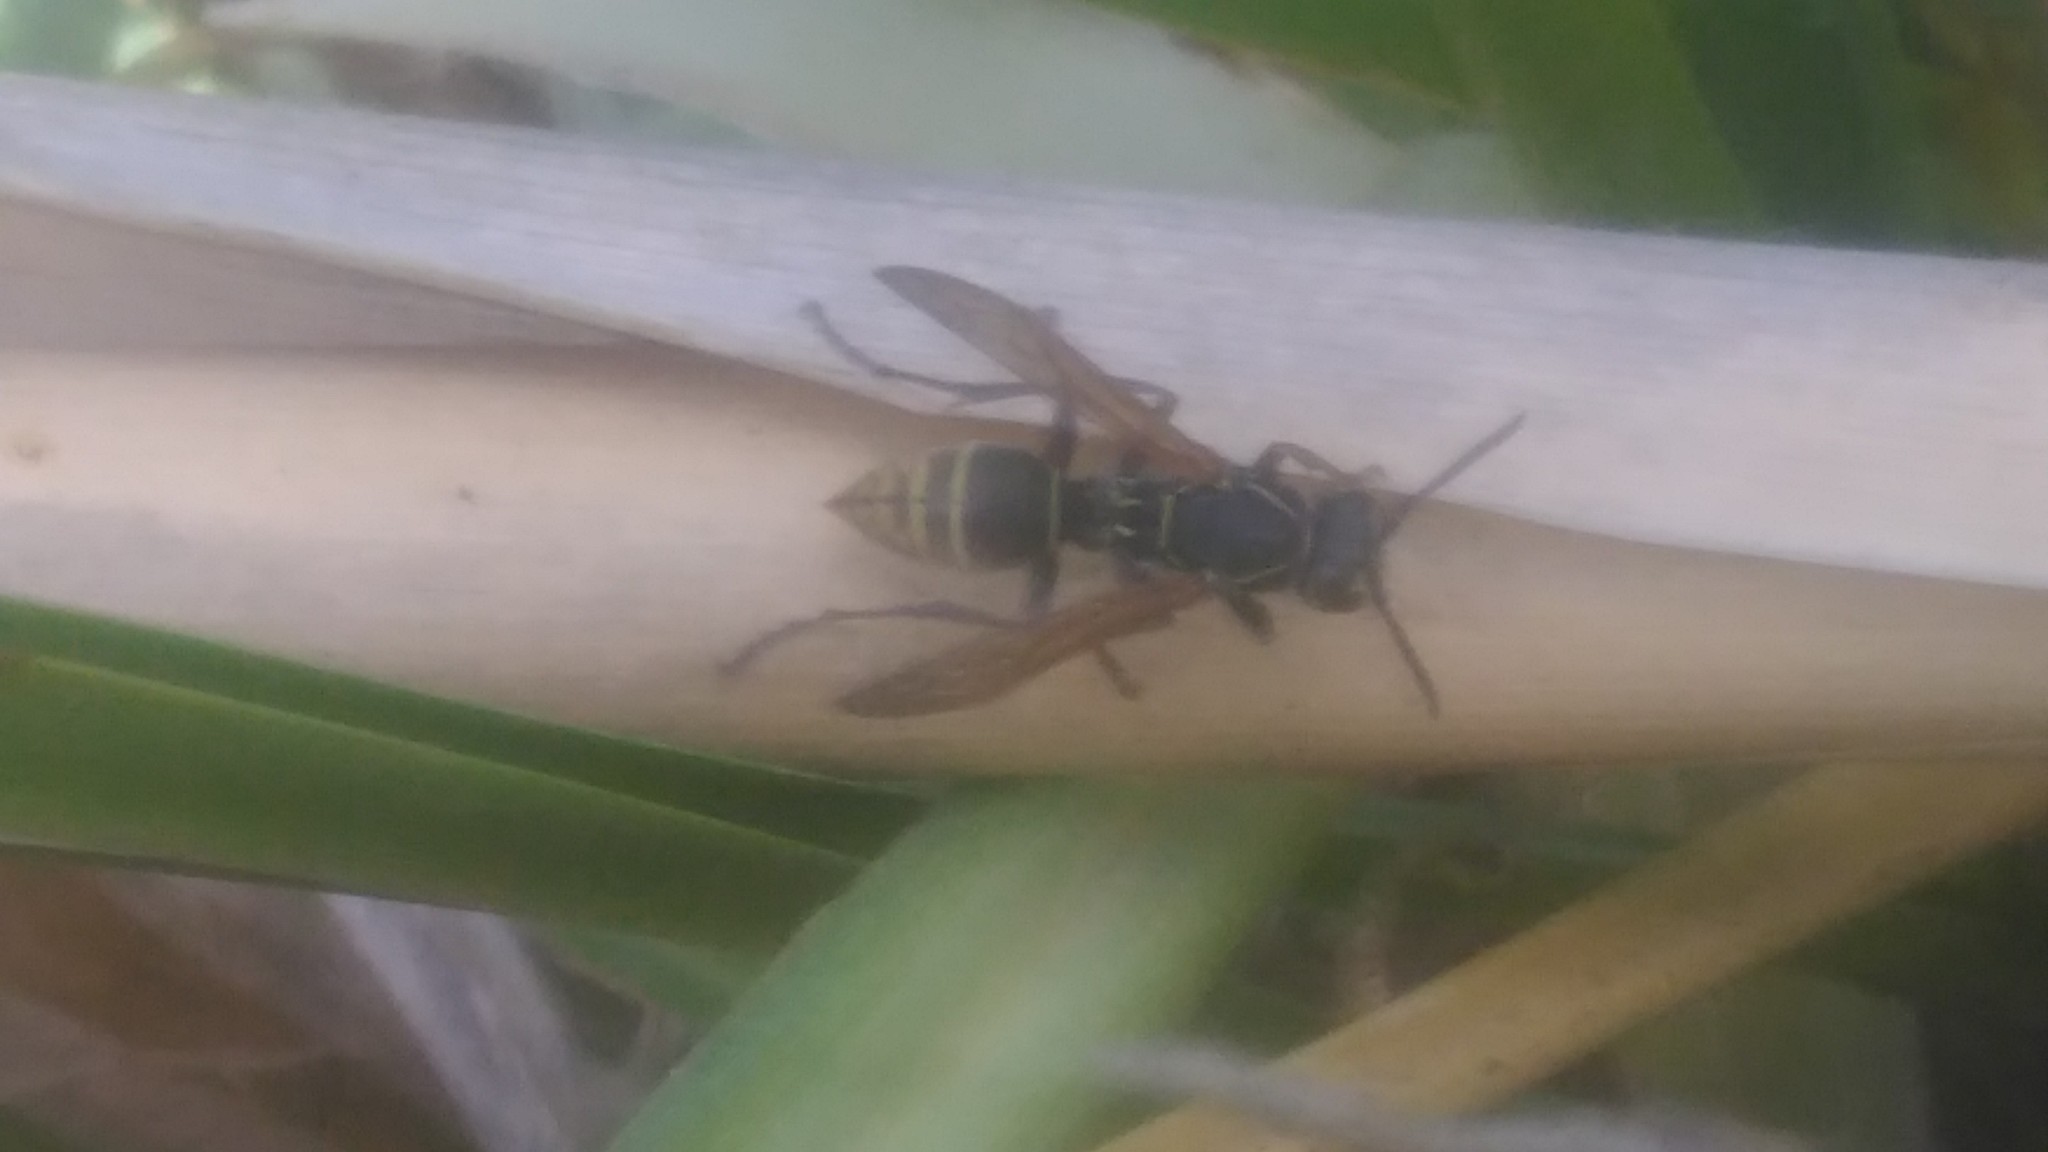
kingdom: Animalia
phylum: Arthropoda
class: Insecta
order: Hymenoptera
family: Eumenidae
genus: Polistes
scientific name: Polistes cinerascens
